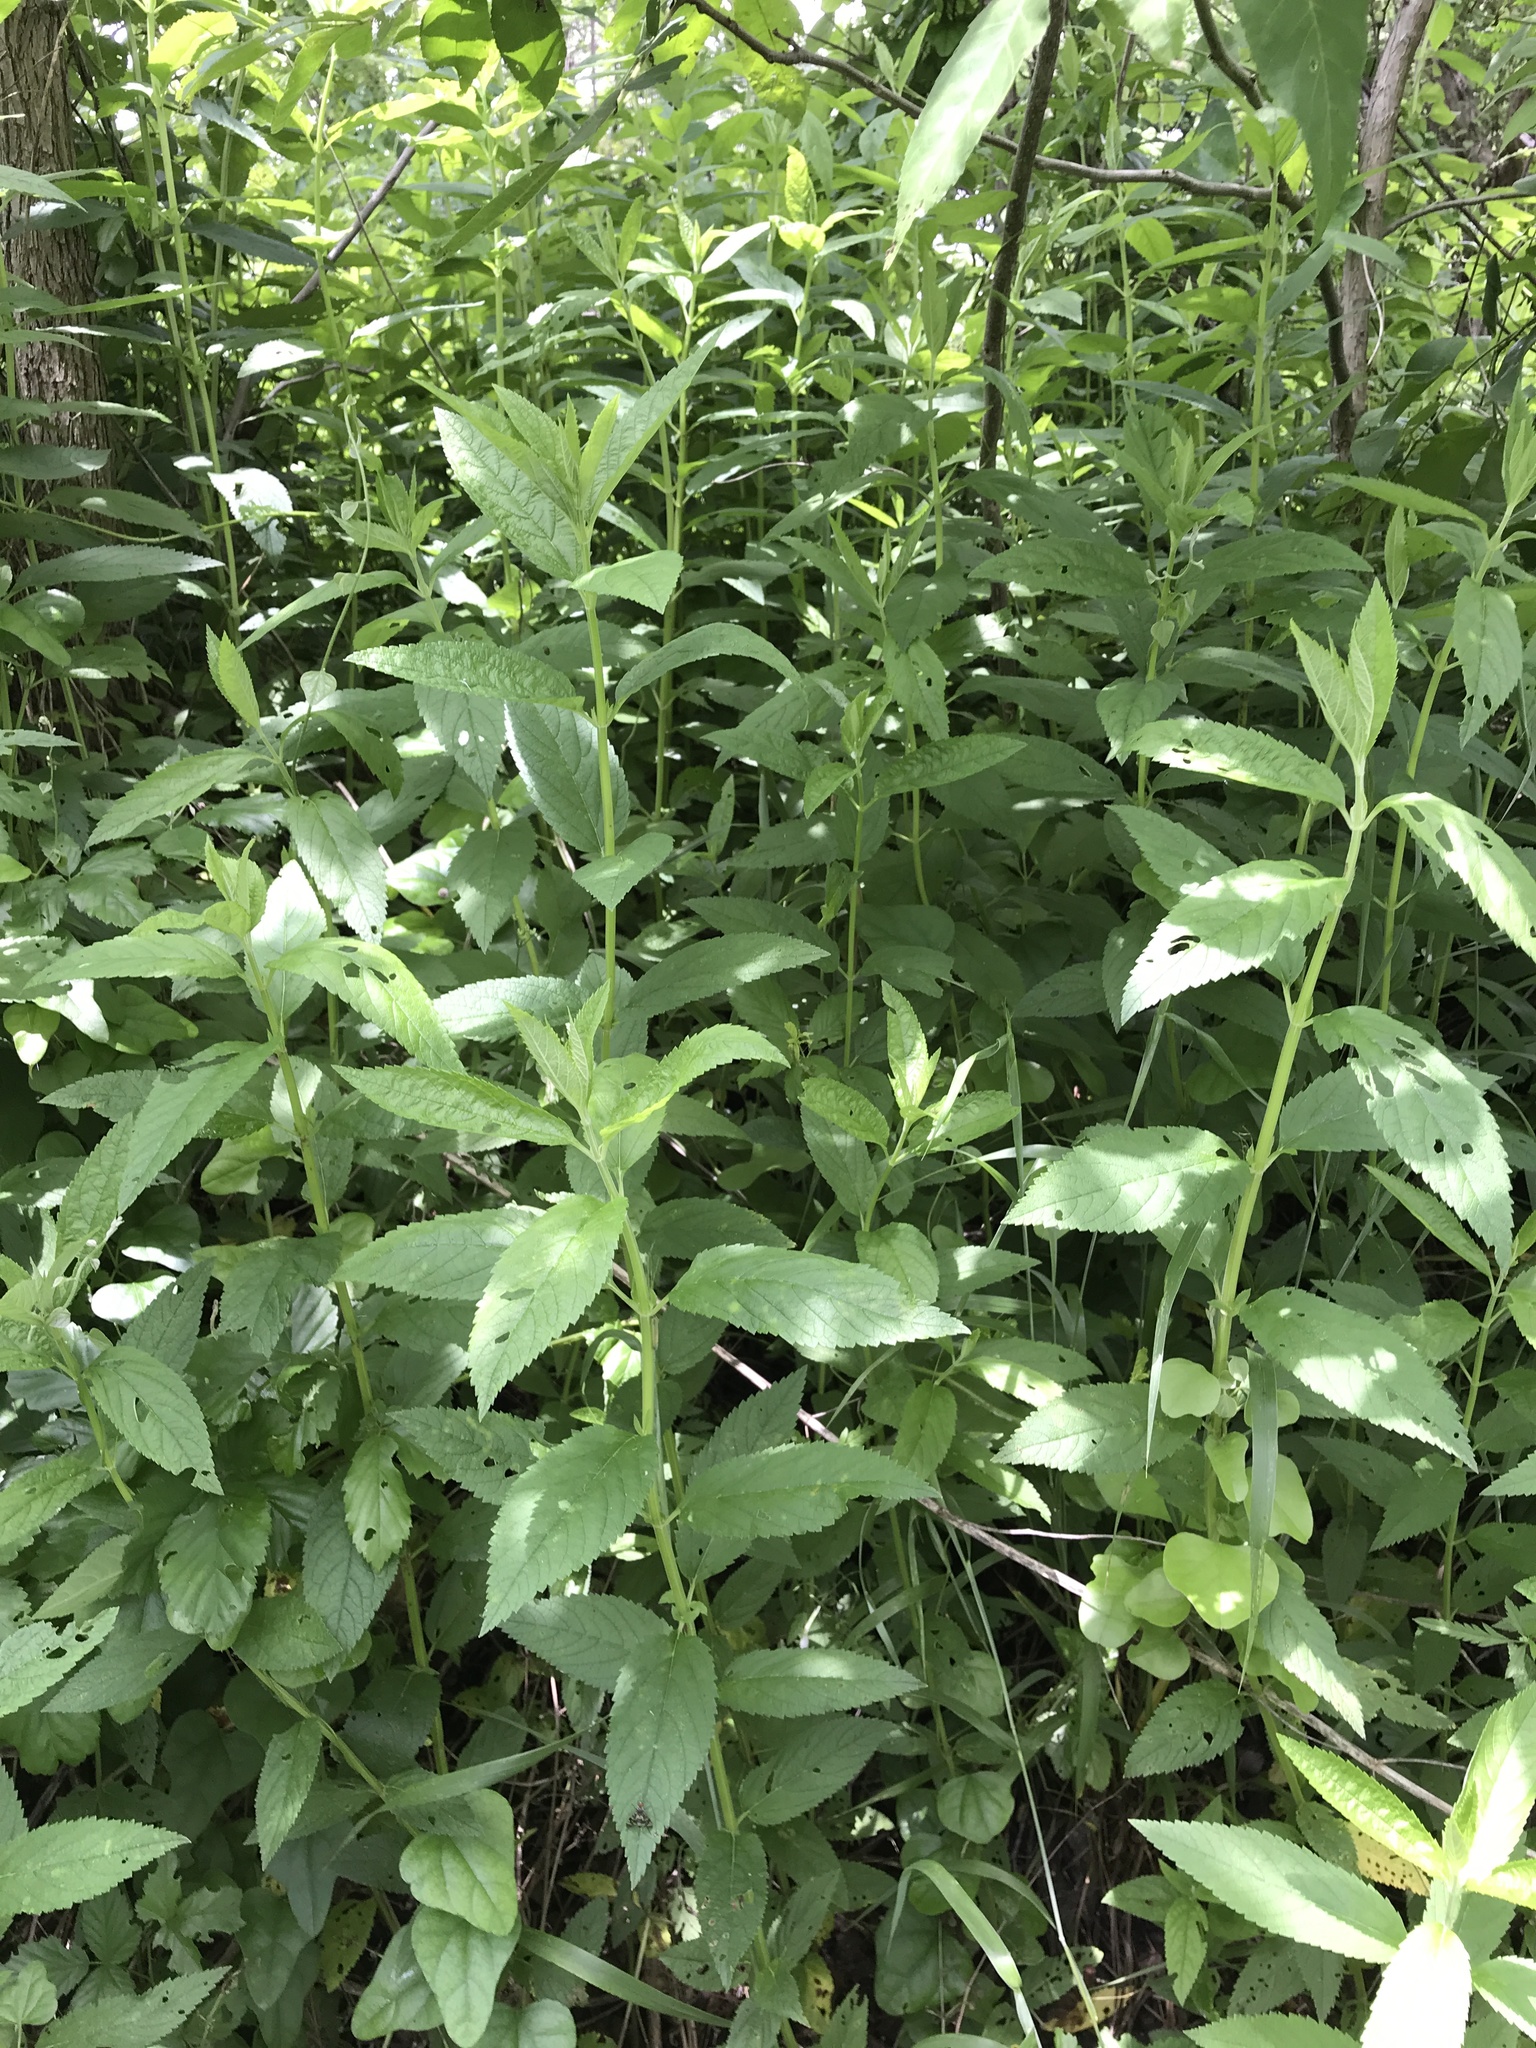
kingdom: Plantae
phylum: Tracheophyta
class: Magnoliopsida
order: Lamiales
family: Lamiaceae
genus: Teucrium
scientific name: Teucrium canadense
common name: American germander
